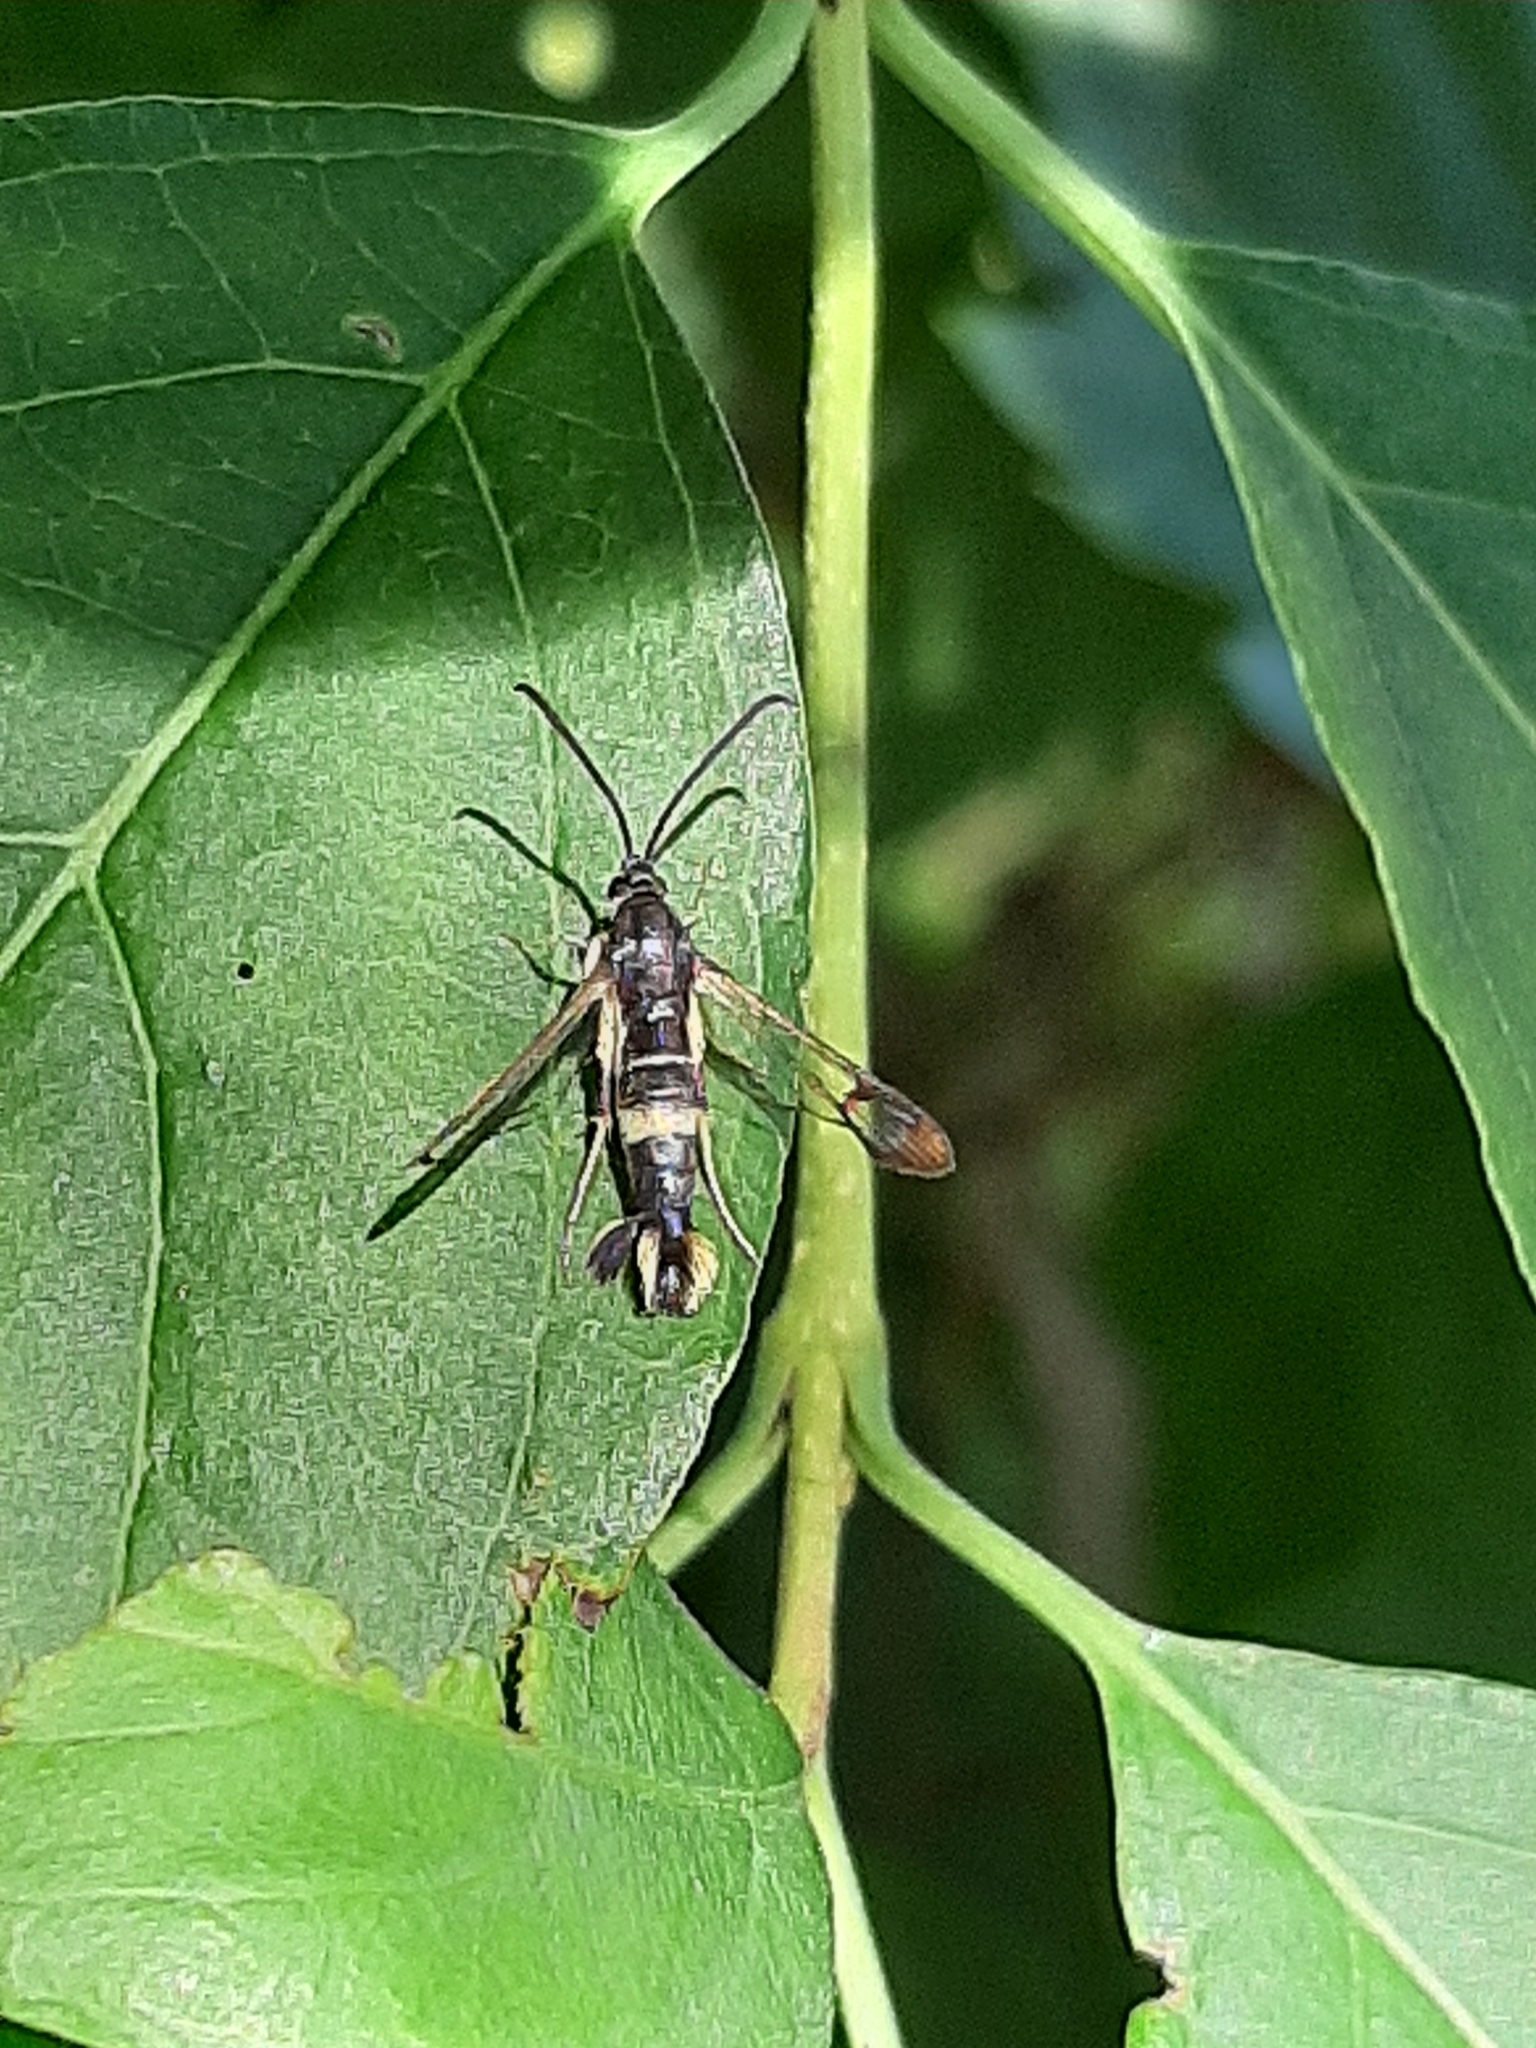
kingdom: Animalia
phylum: Arthropoda
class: Insecta
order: Lepidoptera
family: Sesiidae
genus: Synanthedon
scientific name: Synanthedon scitula
